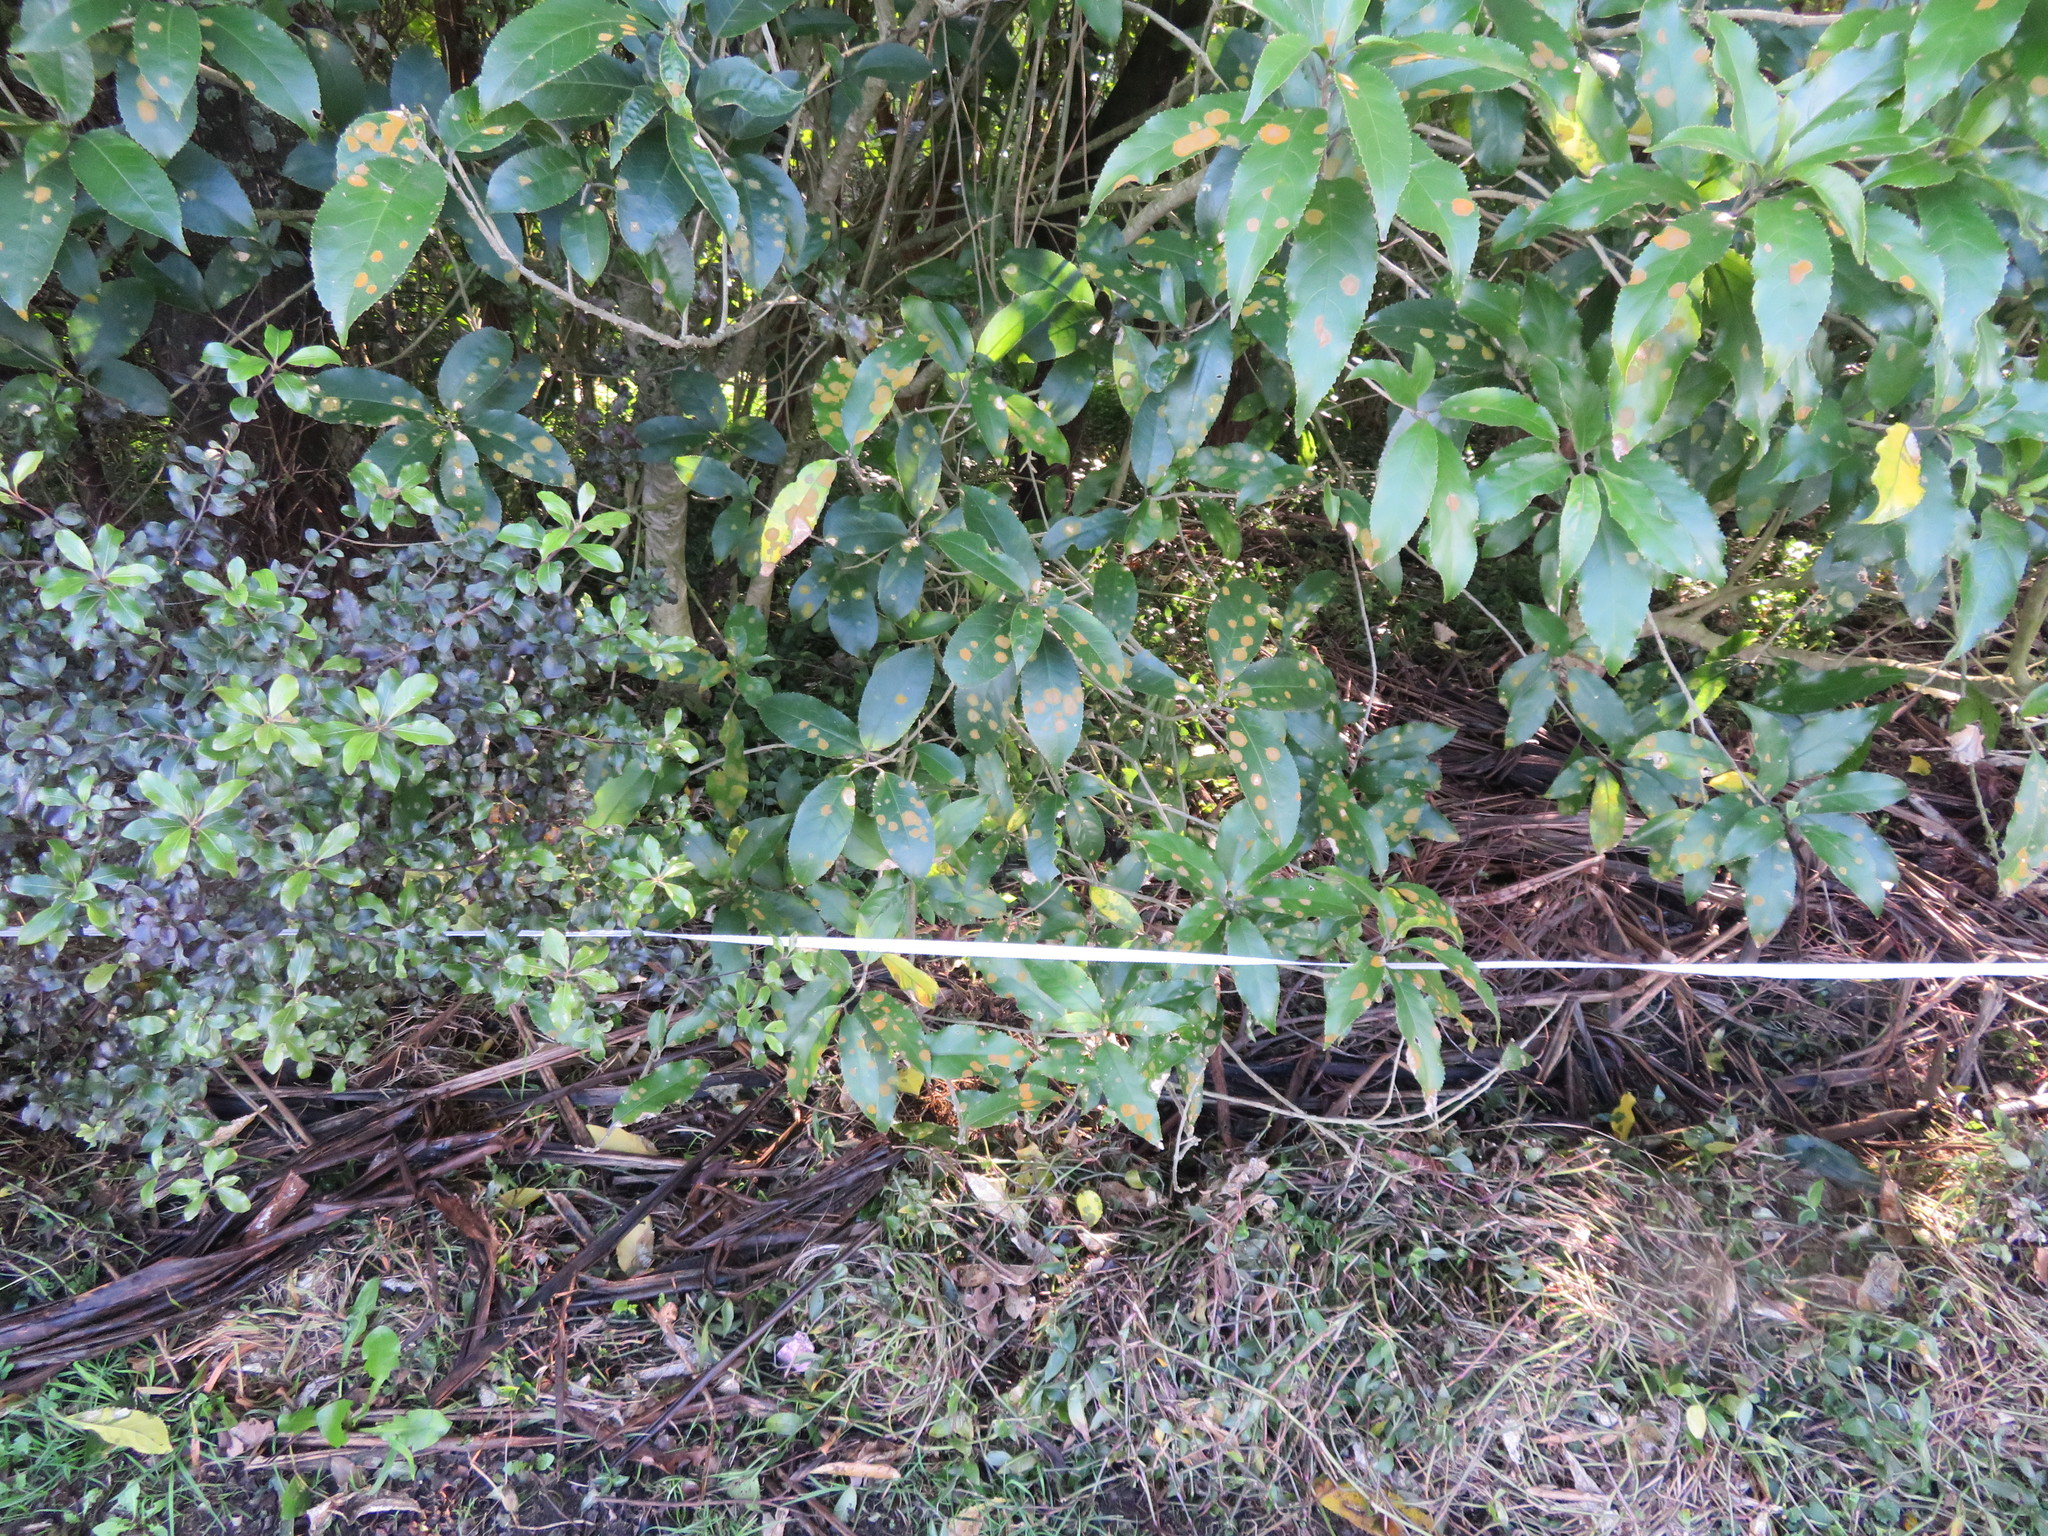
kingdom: Plantae
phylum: Tracheophyta
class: Liliopsida
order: Commelinales
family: Commelinaceae
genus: Tradescantia
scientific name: Tradescantia fluminensis
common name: Wandering-jew
